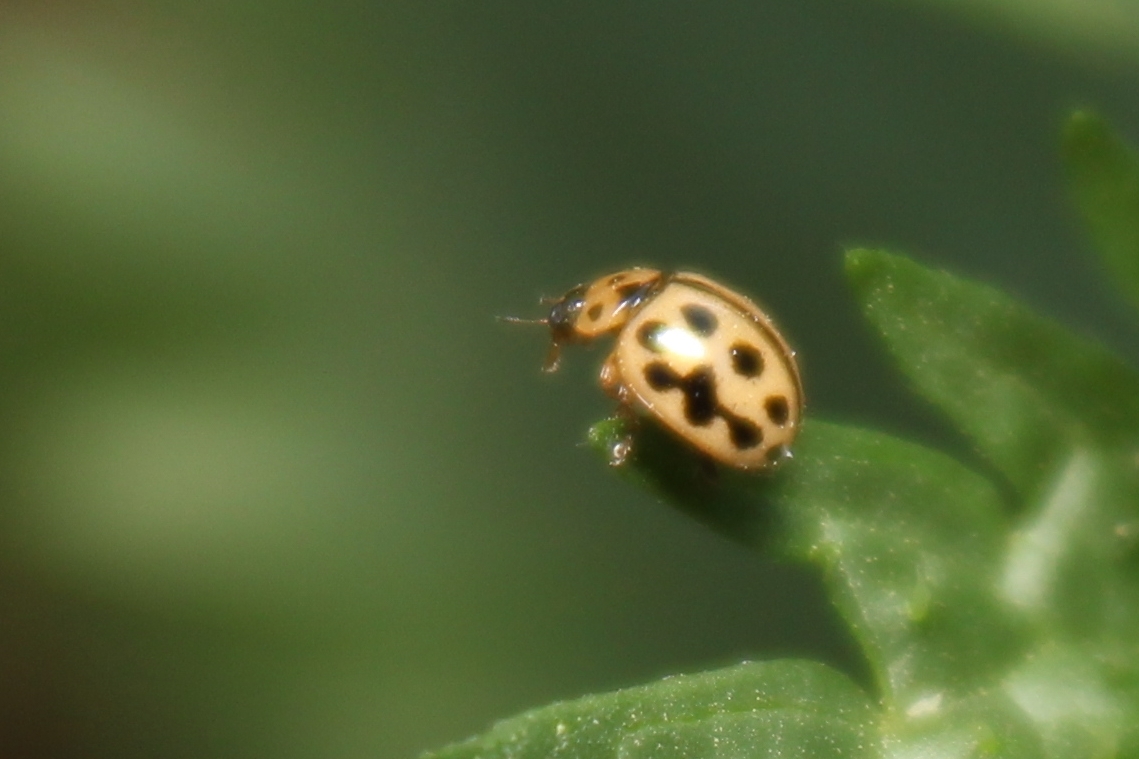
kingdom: Animalia
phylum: Arthropoda
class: Insecta
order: Coleoptera
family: Coccinellidae
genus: Tytthaspis
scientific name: Tytthaspis sedecimpunctata
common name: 16-spot ladybird
